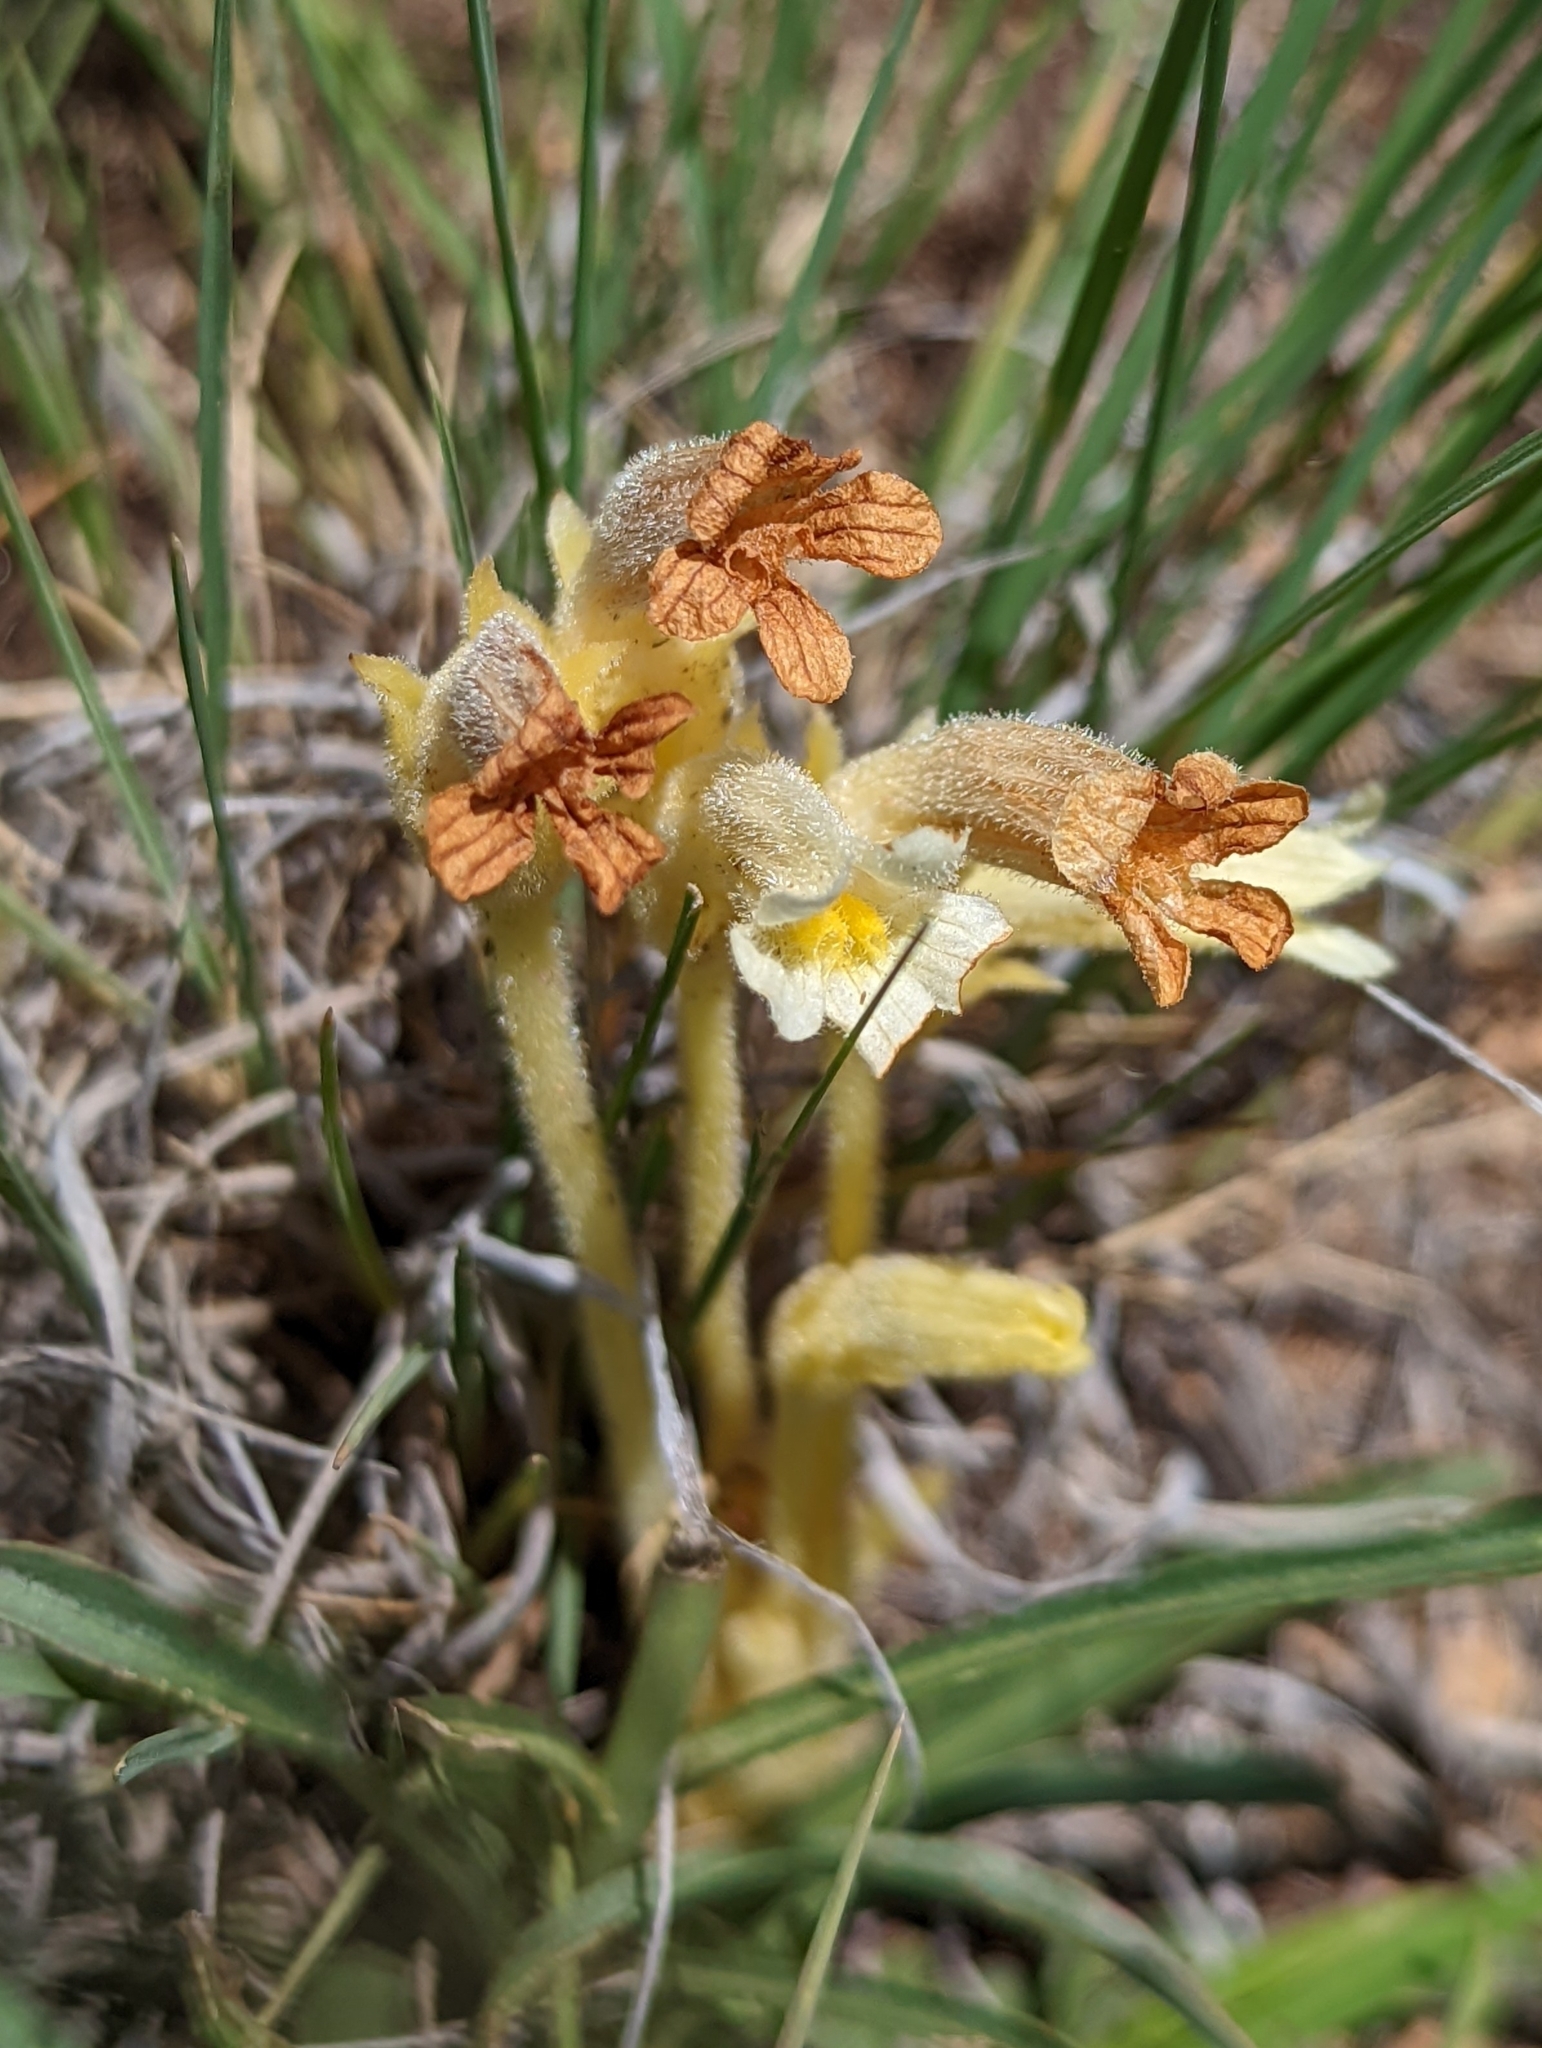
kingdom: Plantae
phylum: Tracheophyta
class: Magnoliopsida
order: Lamiales
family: Orobanchaceae
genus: Aphyllon
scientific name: Aphyllon fasciculatum
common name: Clustered broomrape
